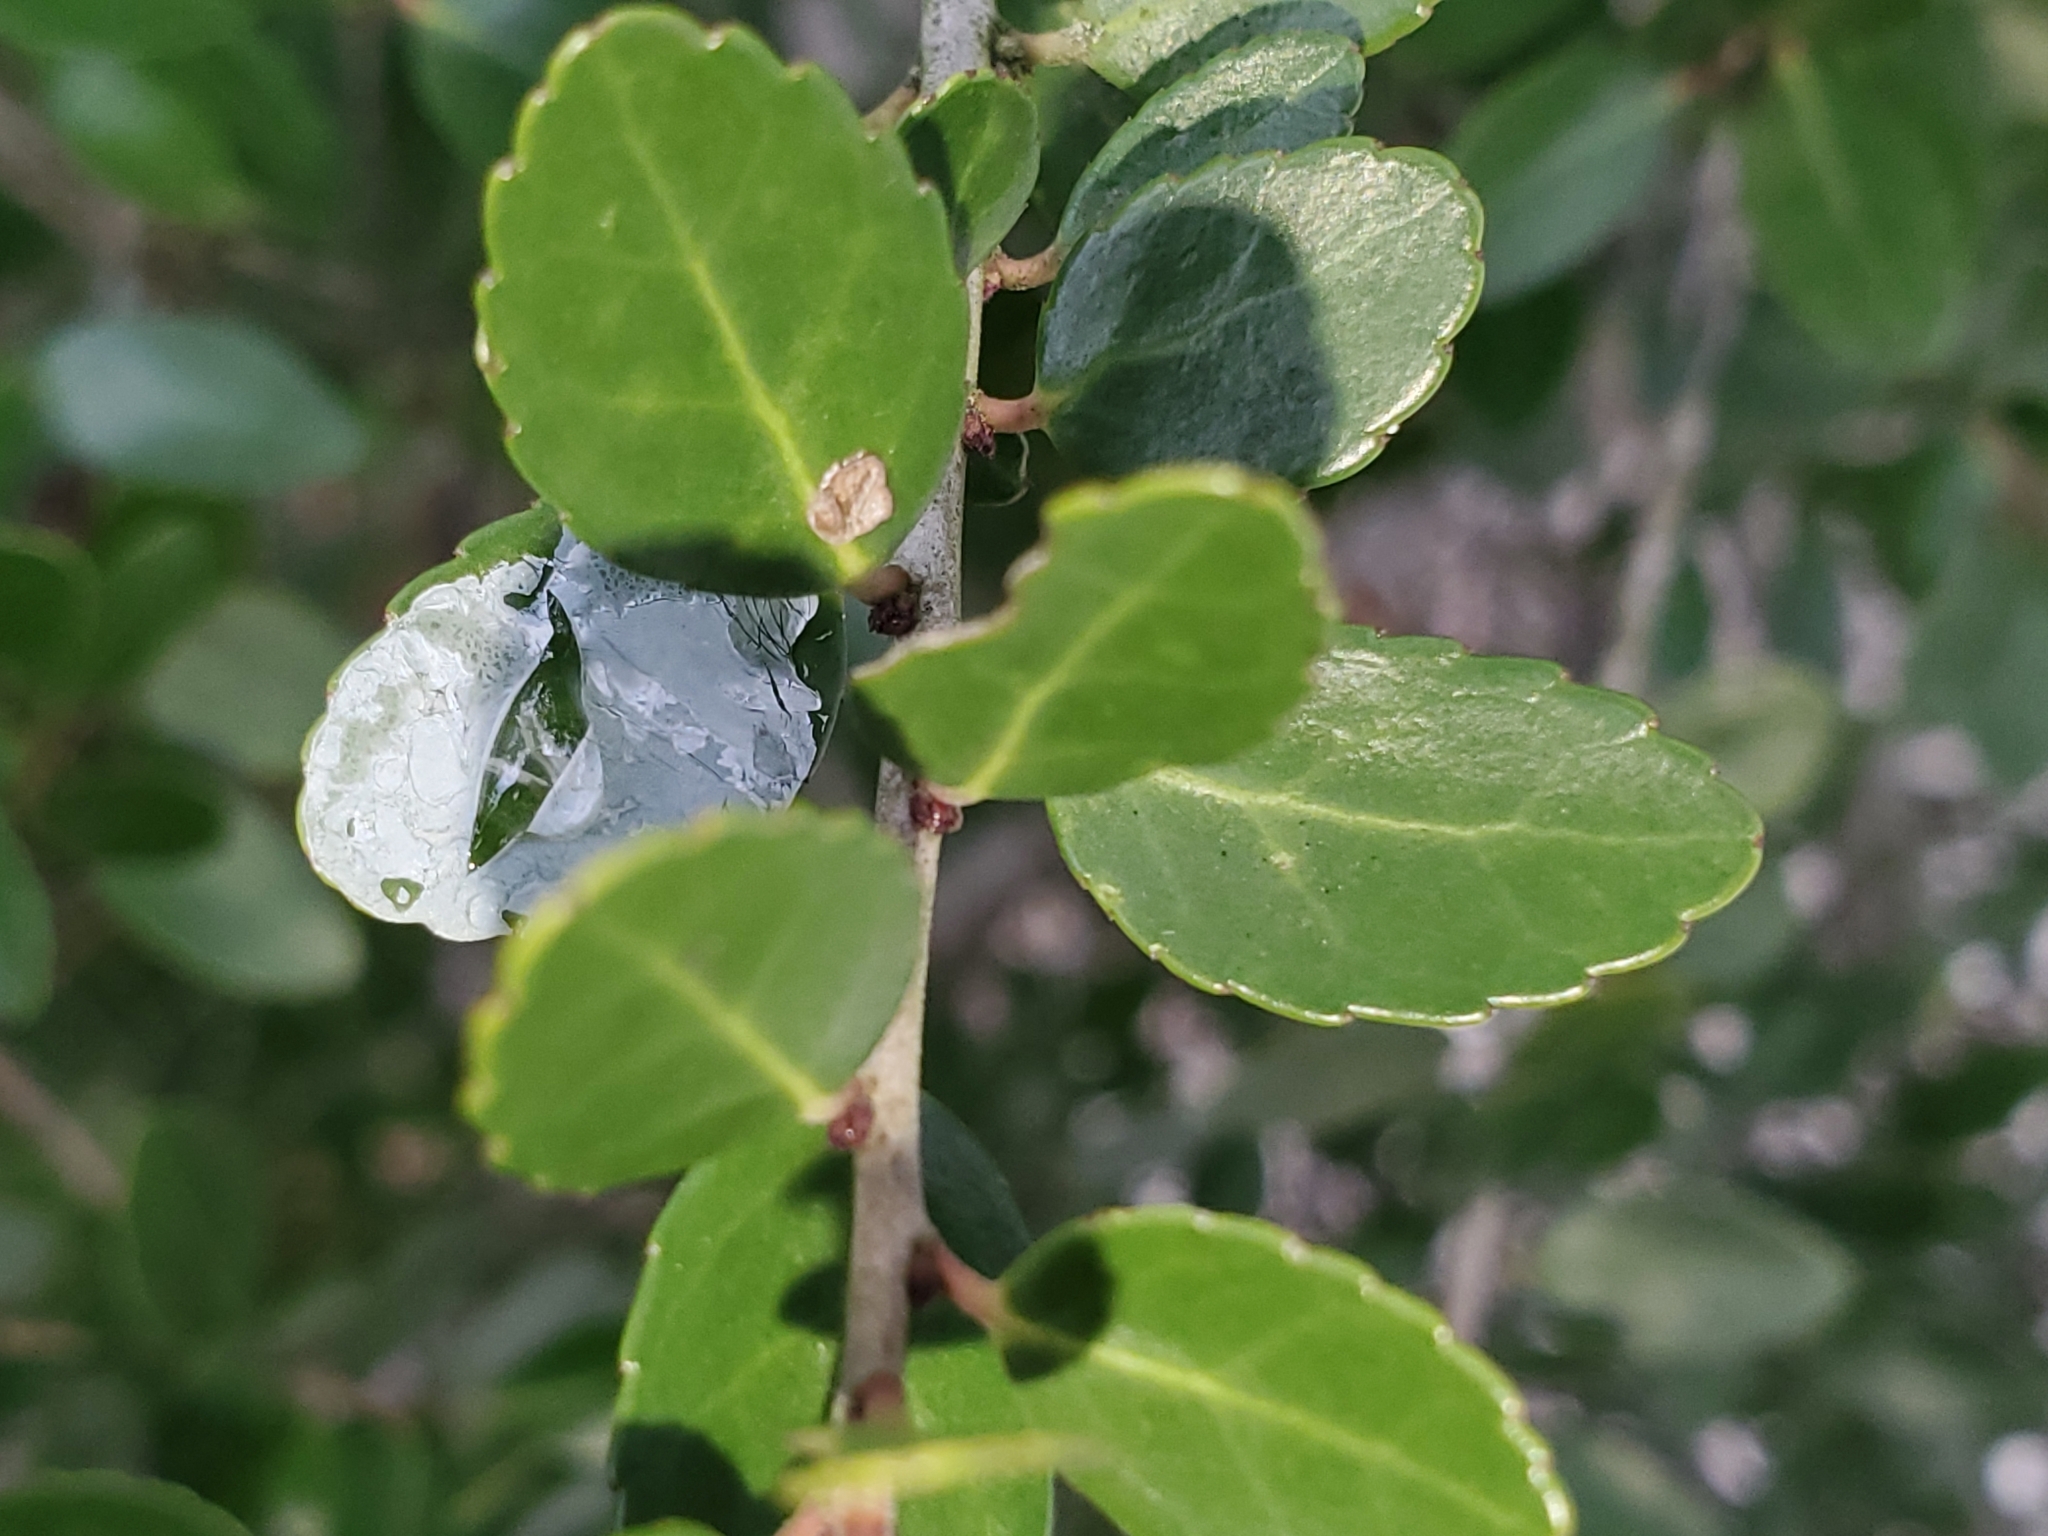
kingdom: Plantae
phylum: Tracheophyta
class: Magnoliopsida
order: Aquifoliales
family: Aquifoliaceae
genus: Ilex
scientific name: Ilex vomitoria
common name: Yaupon holly
